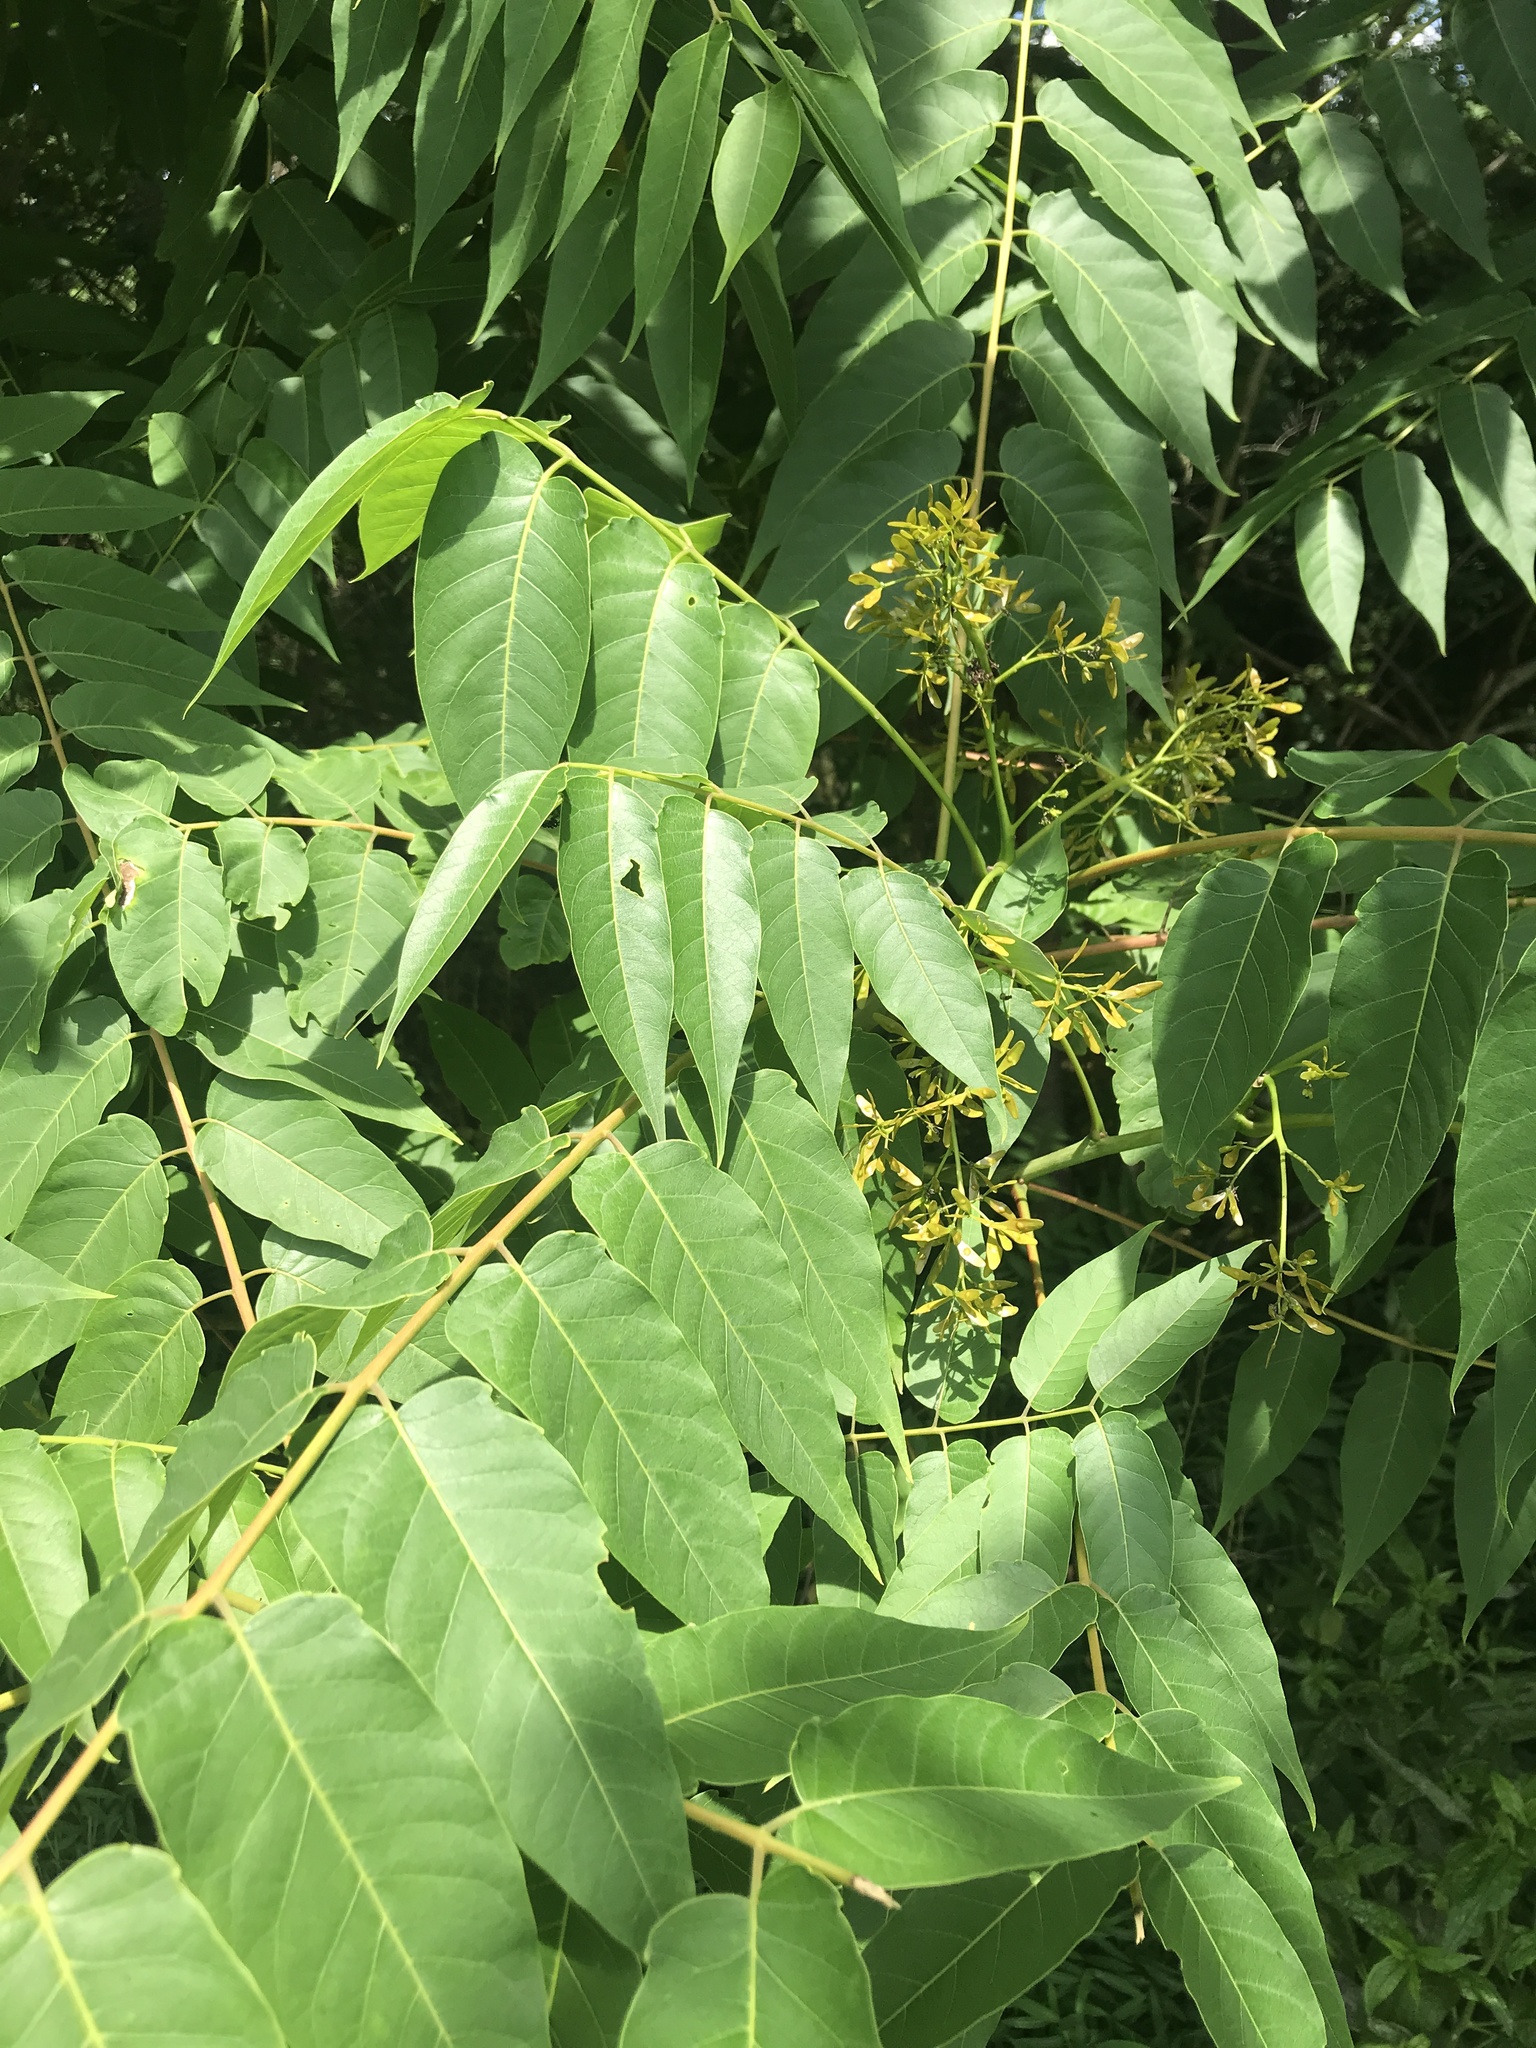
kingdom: Plantae
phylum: Tracheophyta
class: Magnoliopsida
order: Sapindales
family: Simaroubaceae
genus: Ailanthus
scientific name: Ailanthus altissima
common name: Tree-of-heaven
